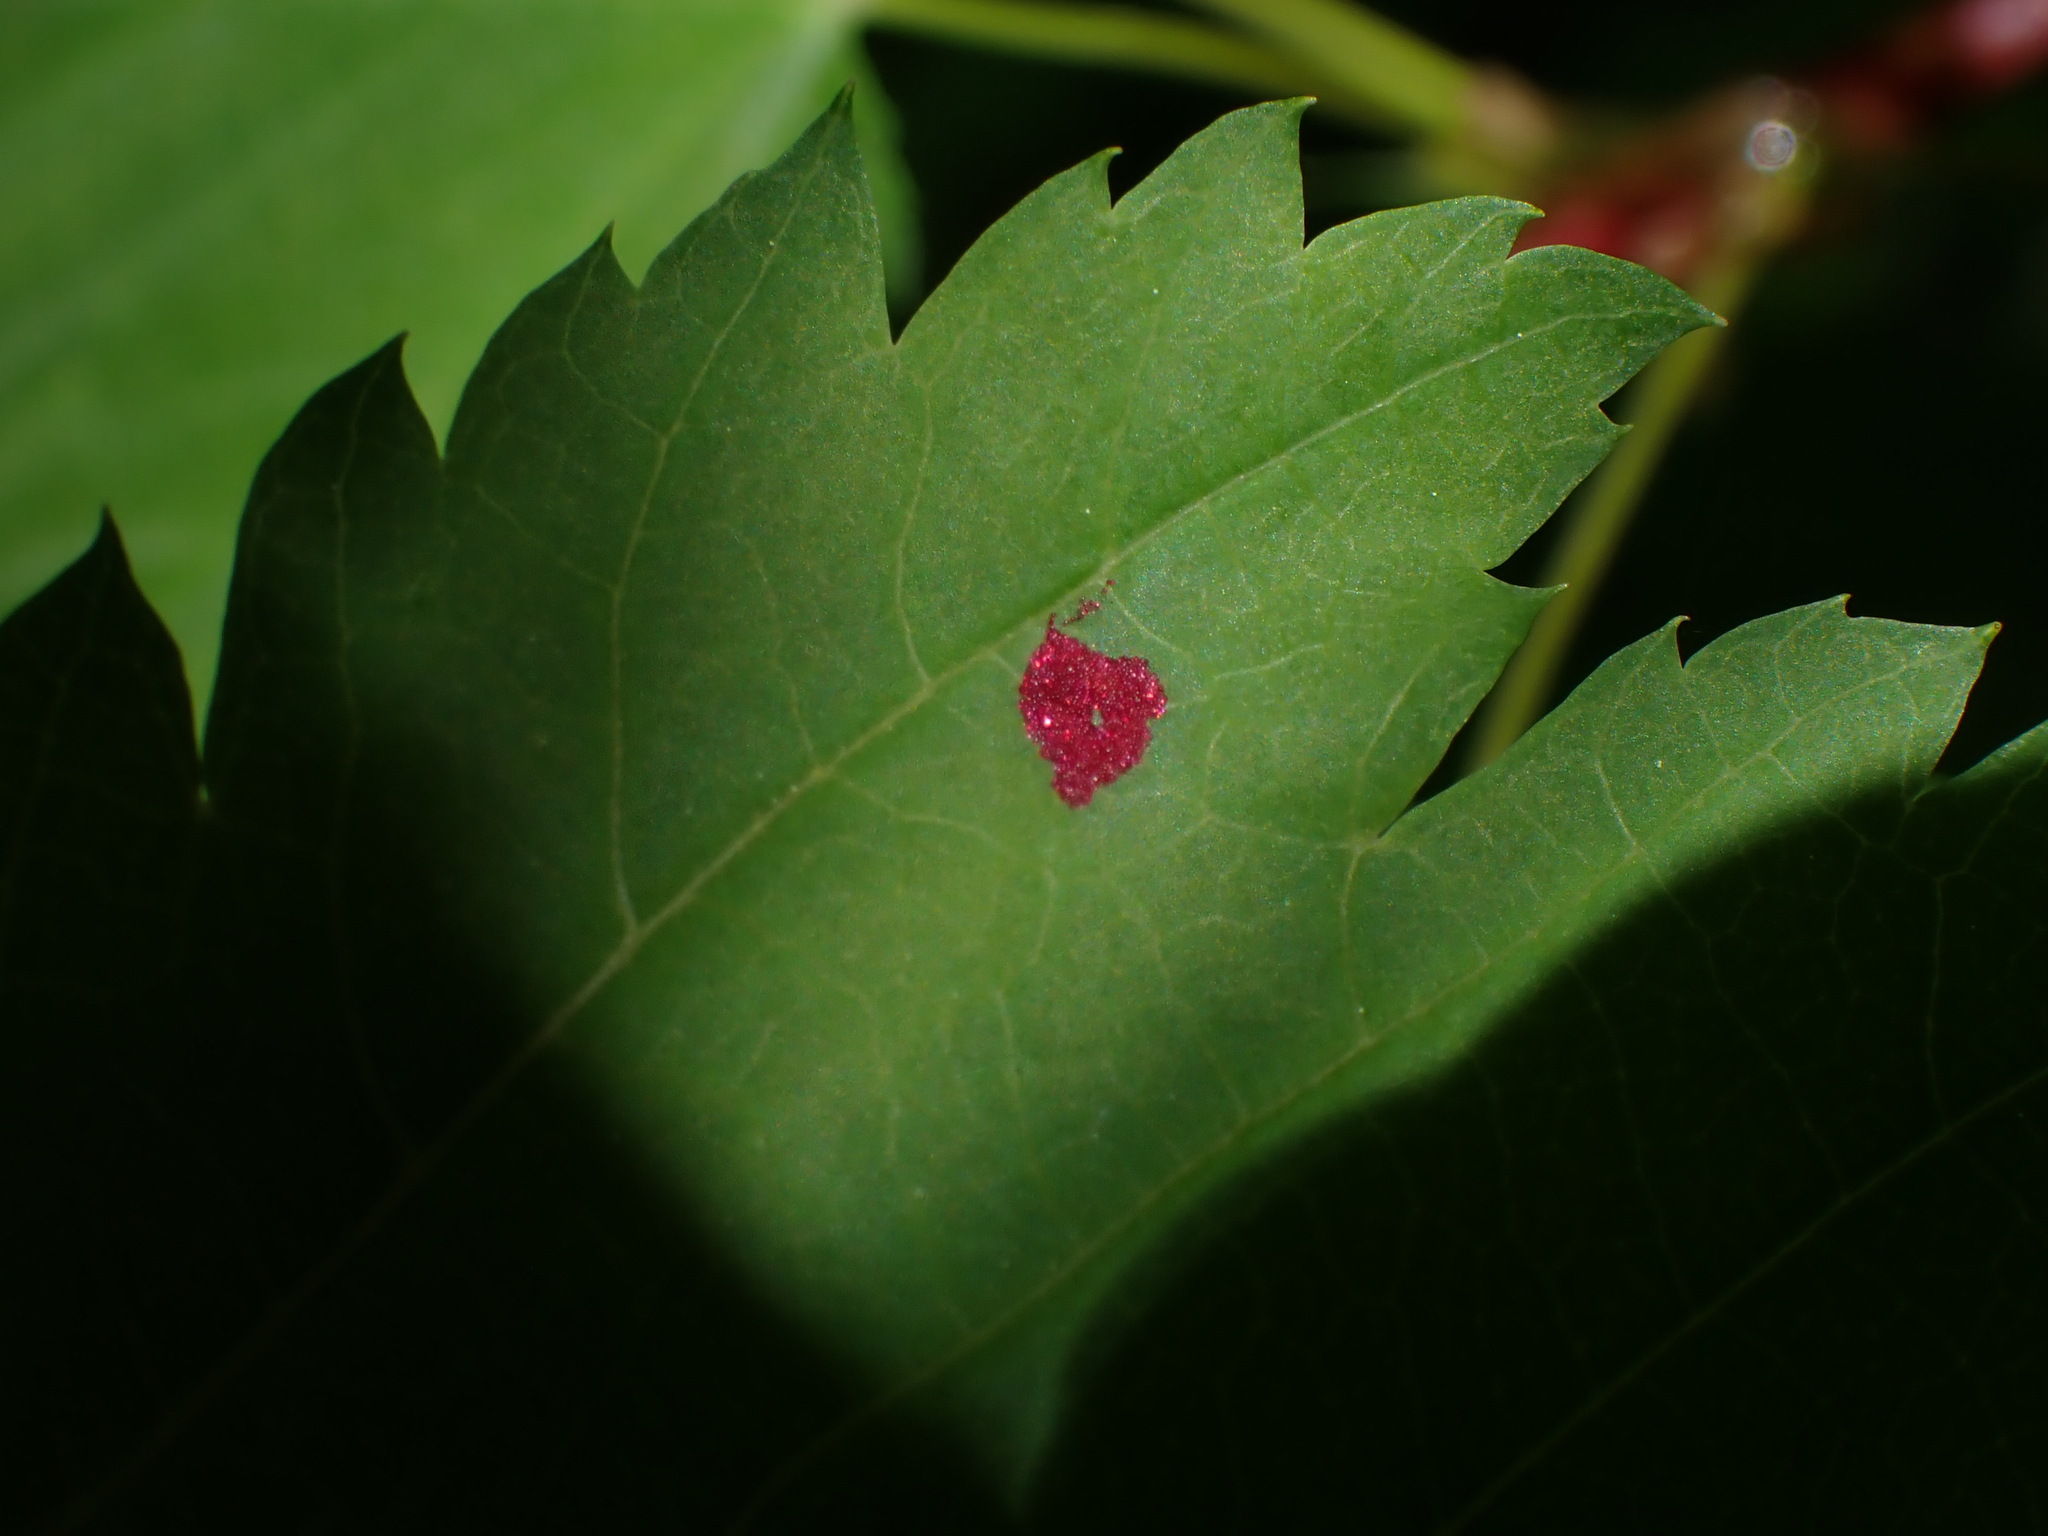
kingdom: Animalia
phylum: Arthropoda
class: Arachnida
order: Trombidiformes
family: Eriophyidae
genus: Aceria
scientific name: Aceria
